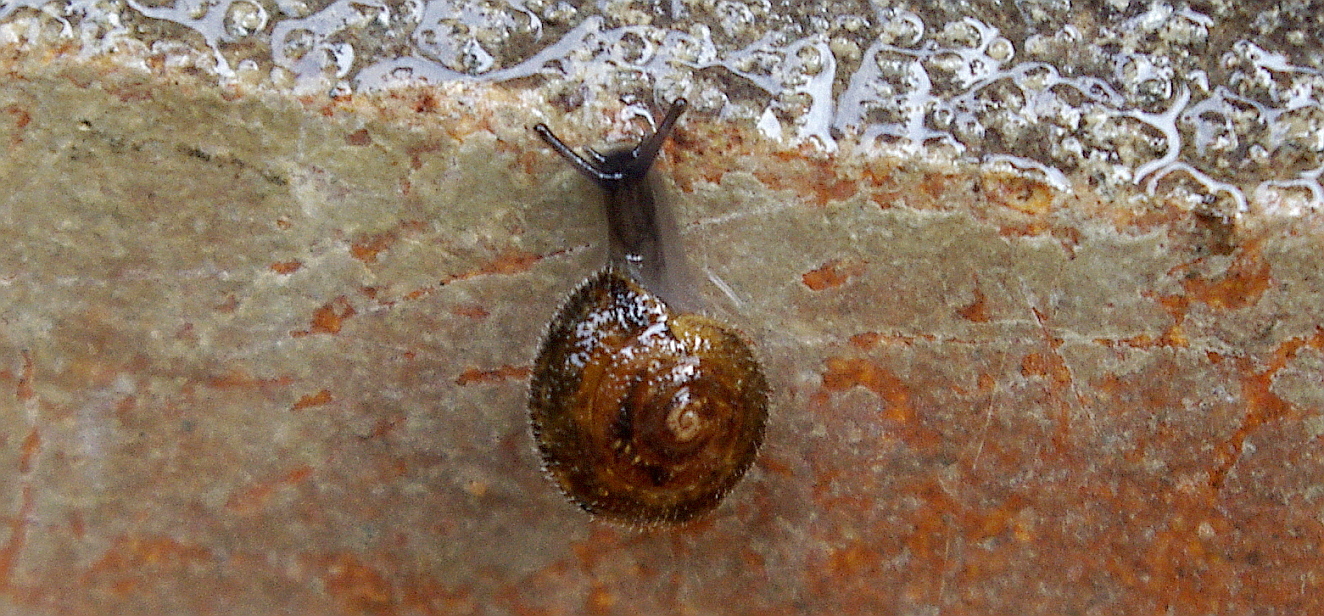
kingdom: Animalia
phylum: Mollusca
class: Gastropoda
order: Stylommatophora
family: Hygromiidae
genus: Trochulus
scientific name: Trochulus hispidus
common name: Hairy snail
